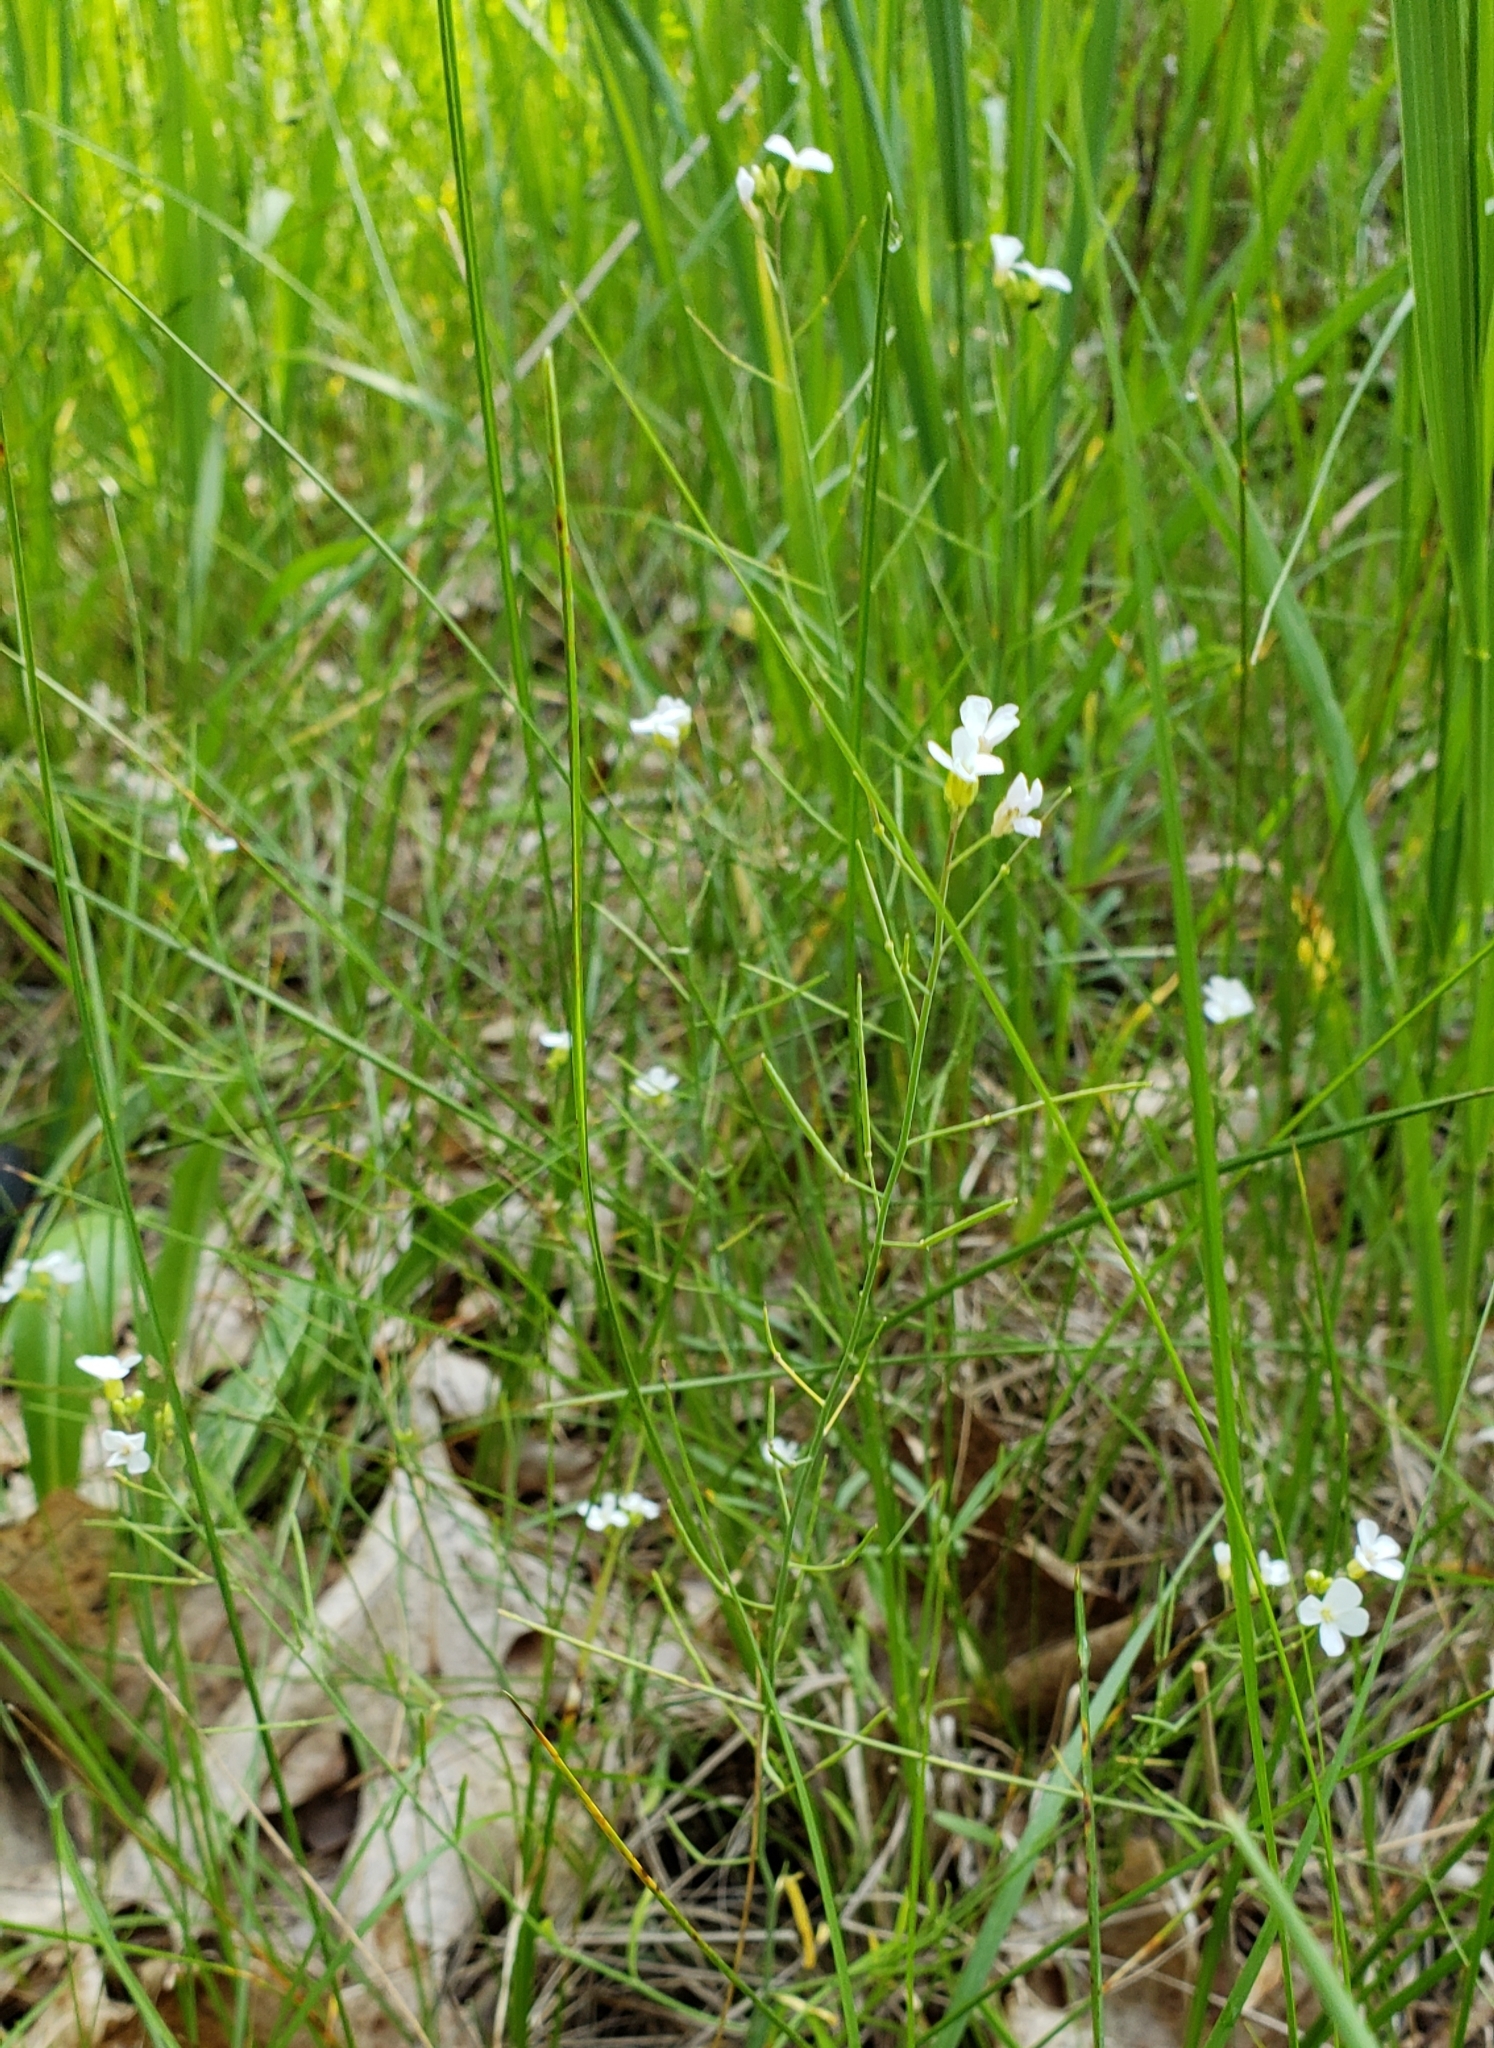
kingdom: Plantae
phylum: Tracheophyta
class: Magnoliopsida
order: Brassicales
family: Brassicaceae
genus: Arabidopsis
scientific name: Arabidopsis lyrata
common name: Lyrate rockcress
